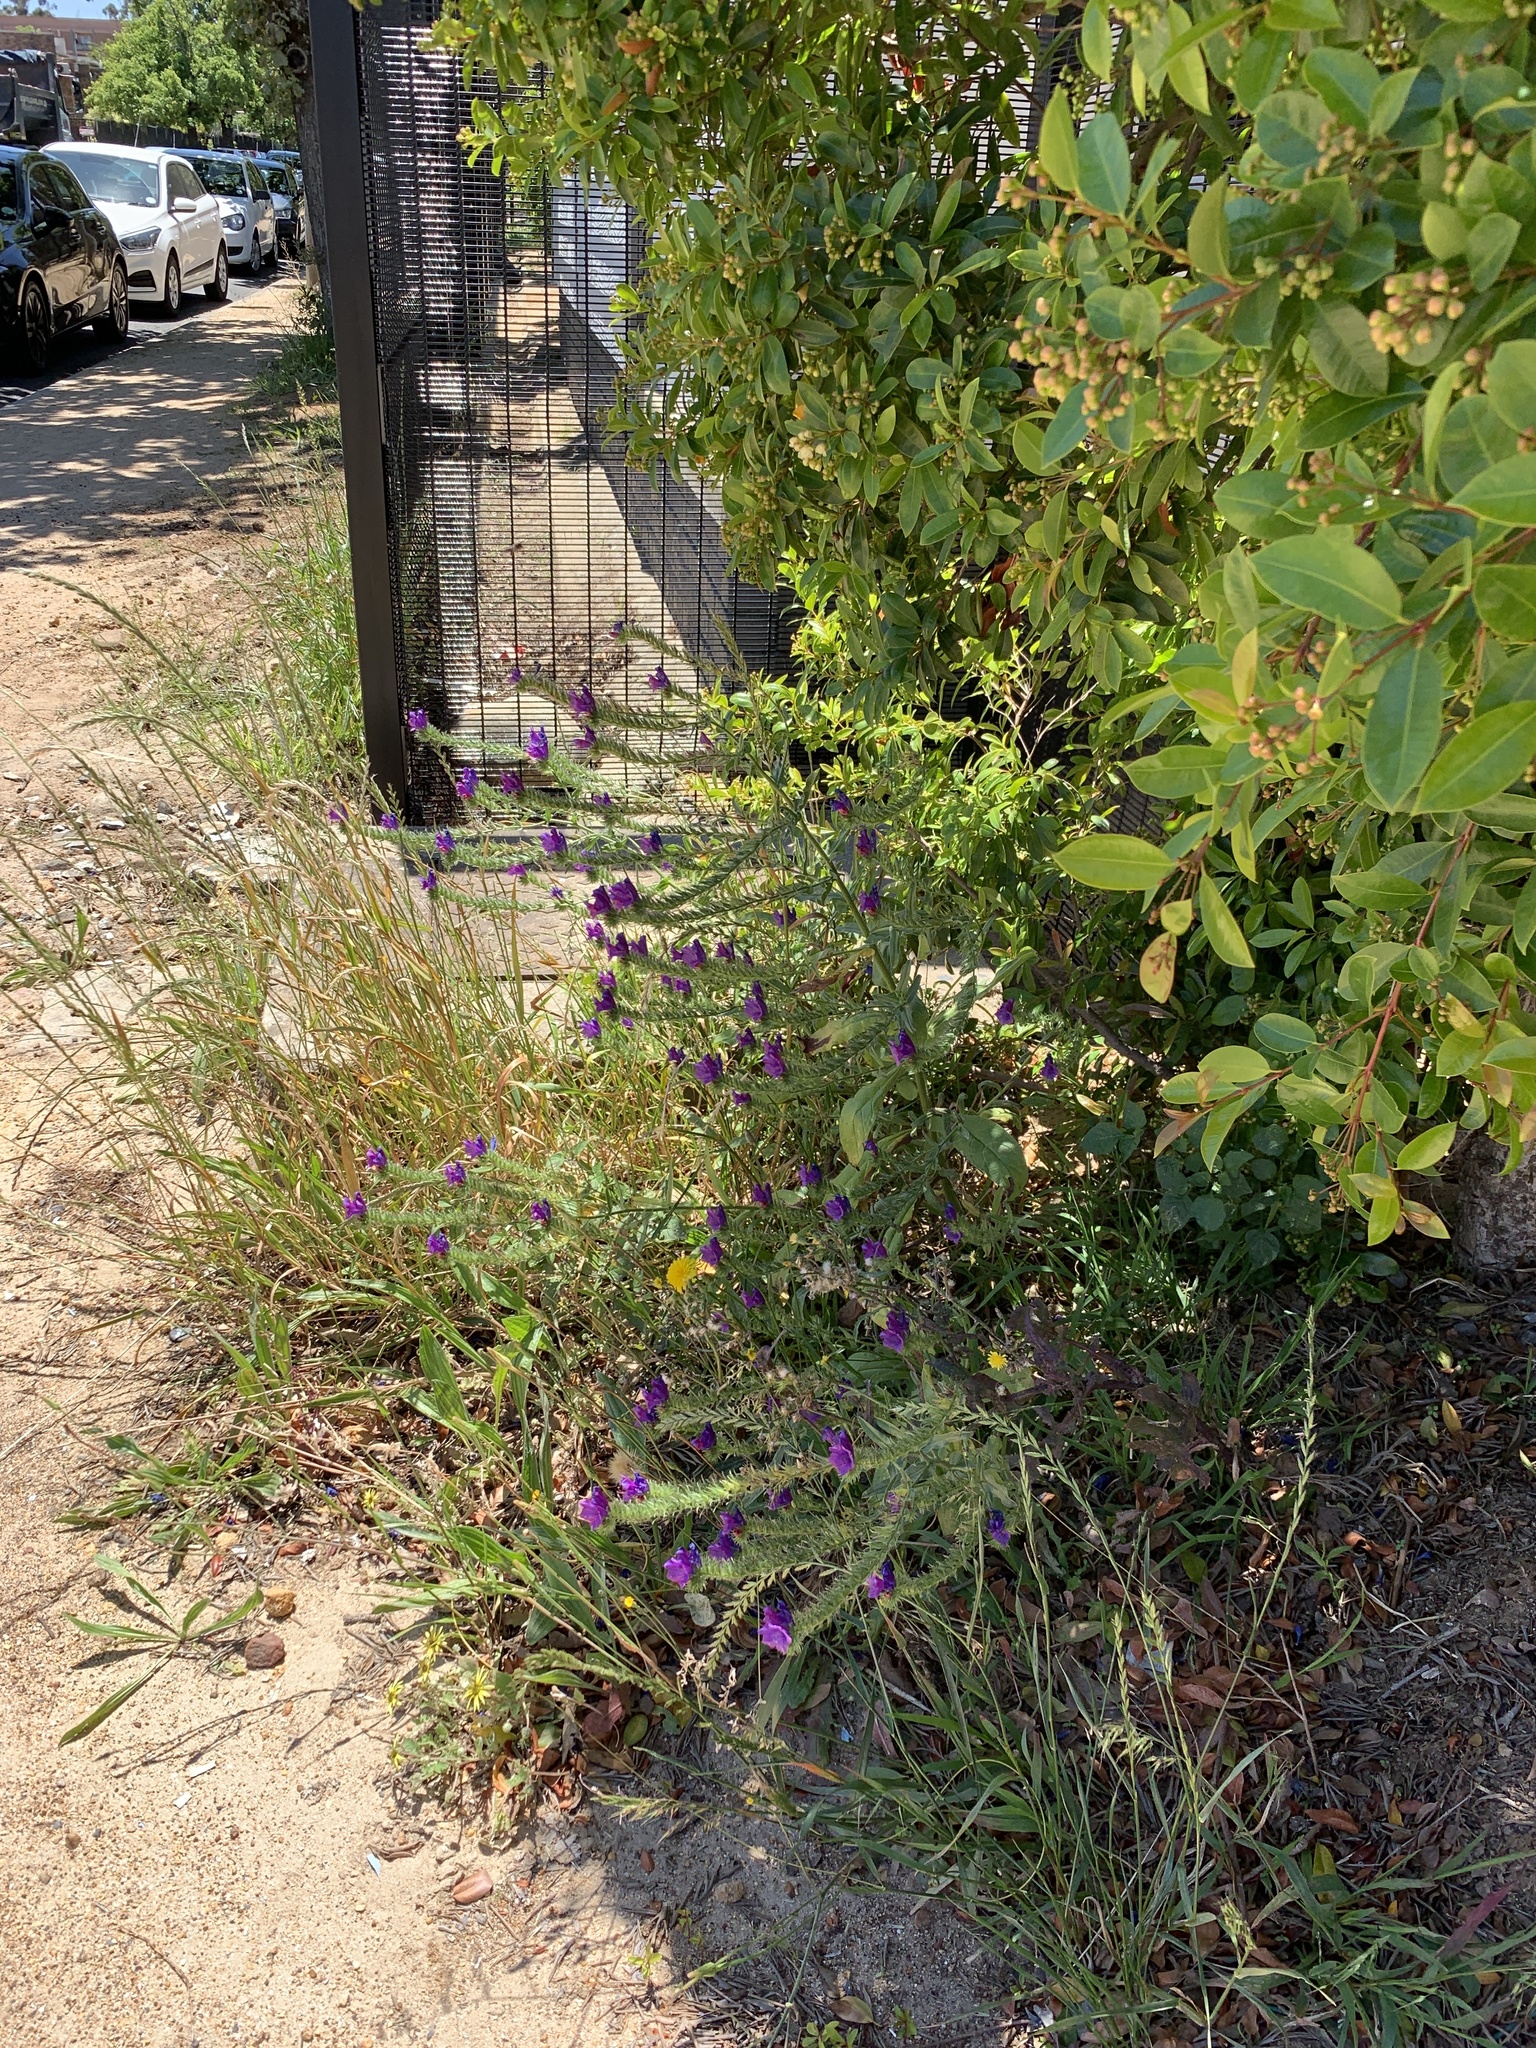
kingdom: Plantae
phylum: Tracheophyta
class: Magnoliopsida
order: Boraginales
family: Boraginaceae
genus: Echium
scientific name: Echium plantagineum
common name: Purple viper's-bugloss
